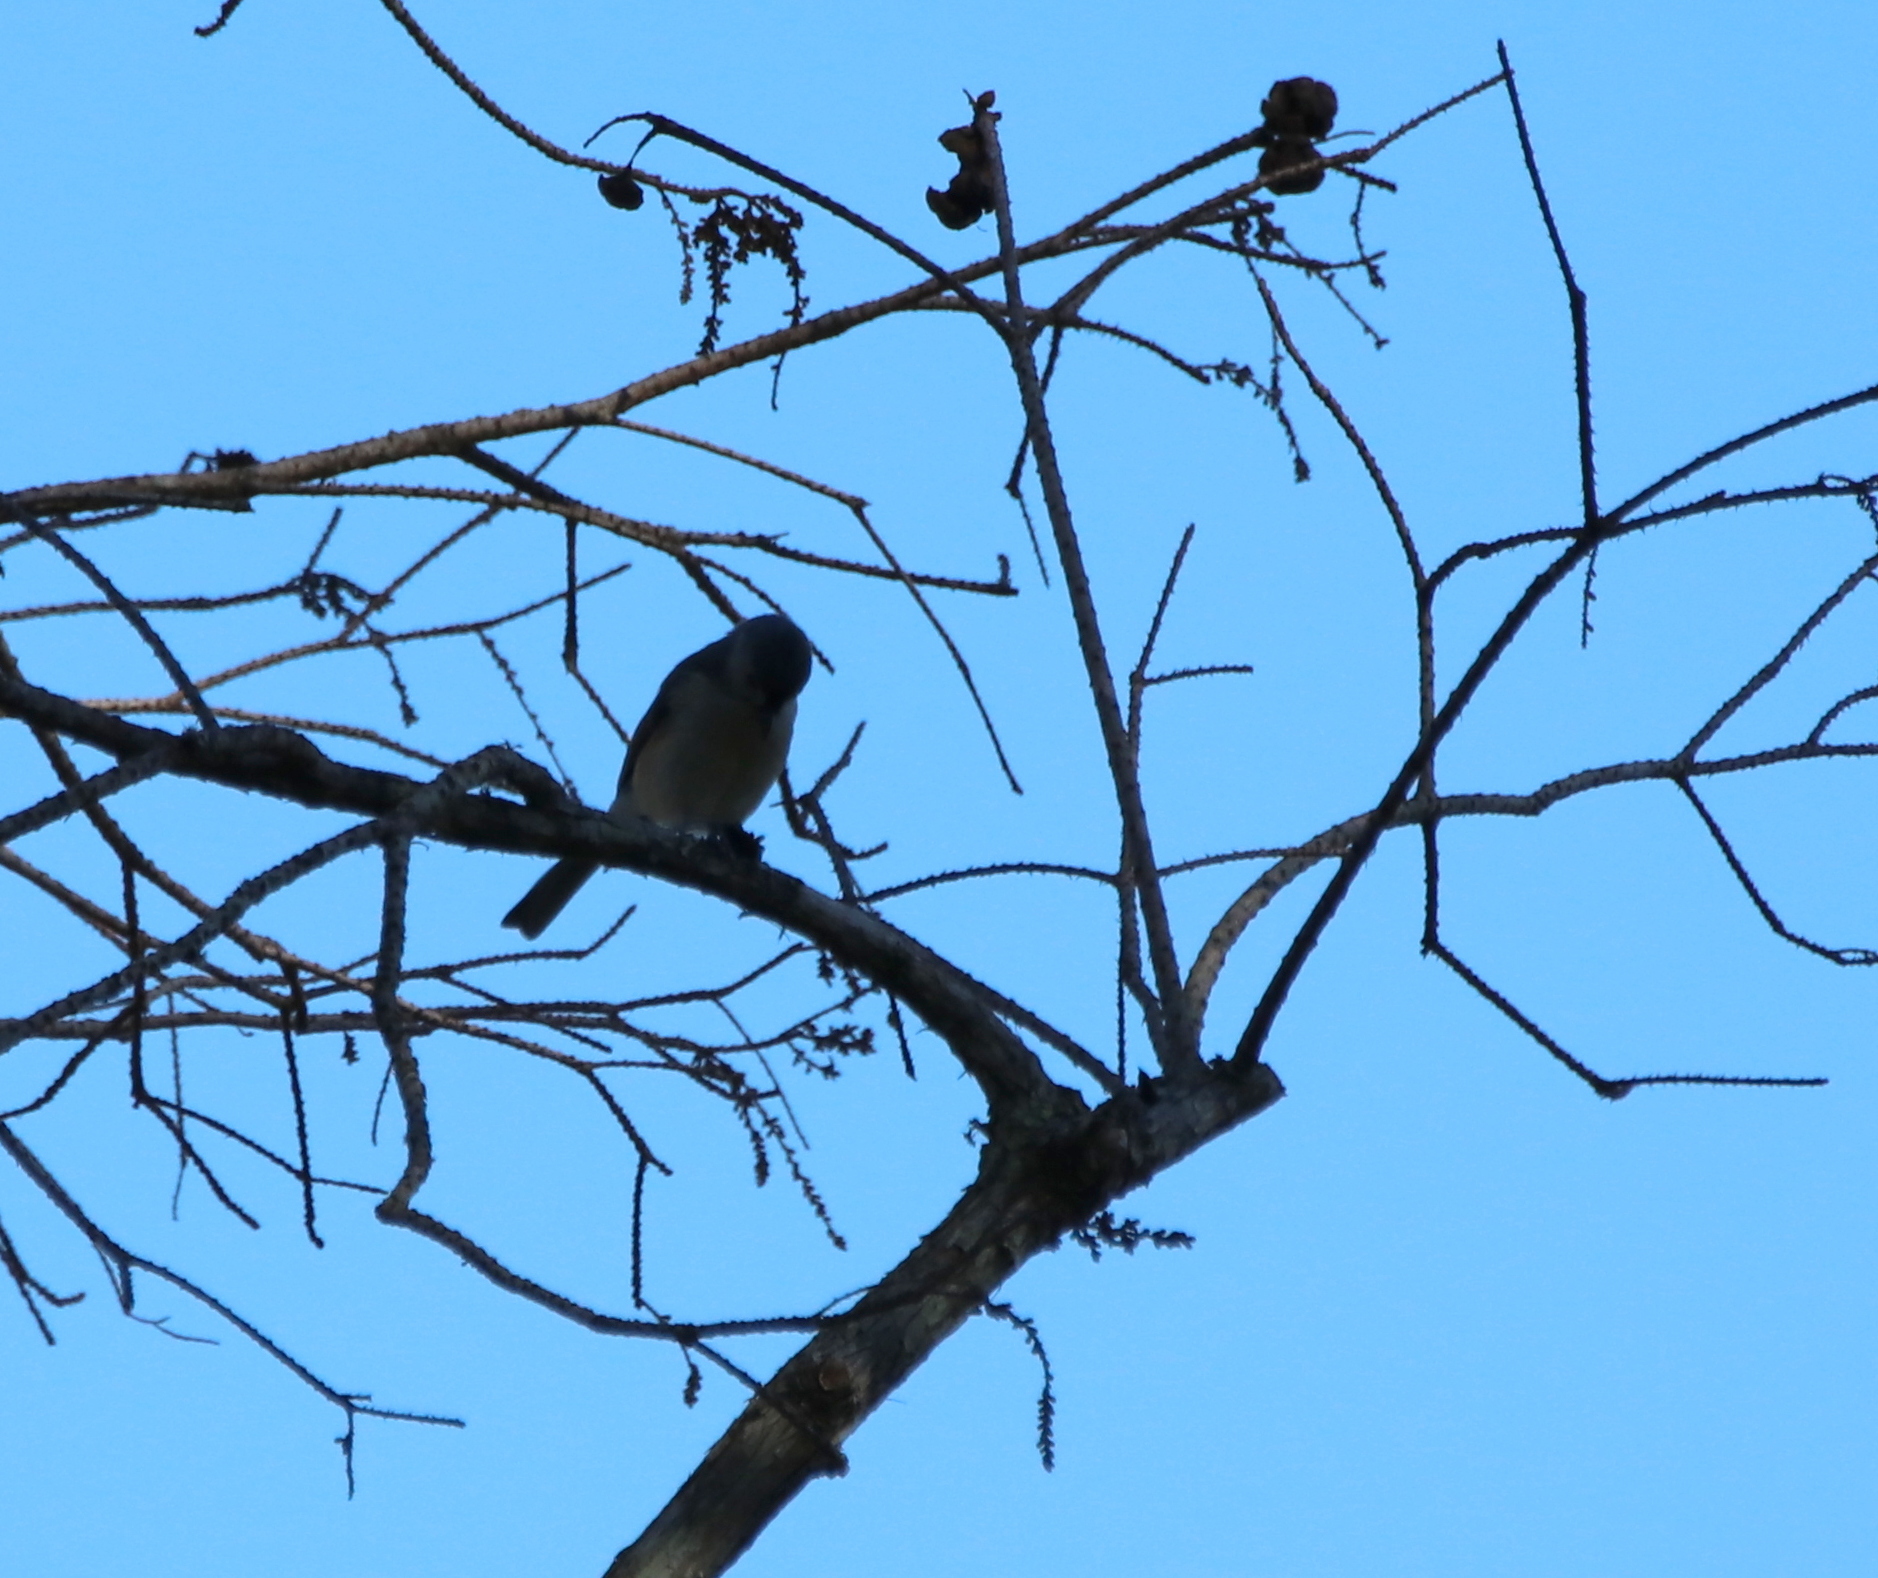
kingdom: Animalia
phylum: Chordata
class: Aves
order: Passeriformes
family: Paridae
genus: Baeolophus
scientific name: Baeolophus bicolor
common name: Tufted titmouse
